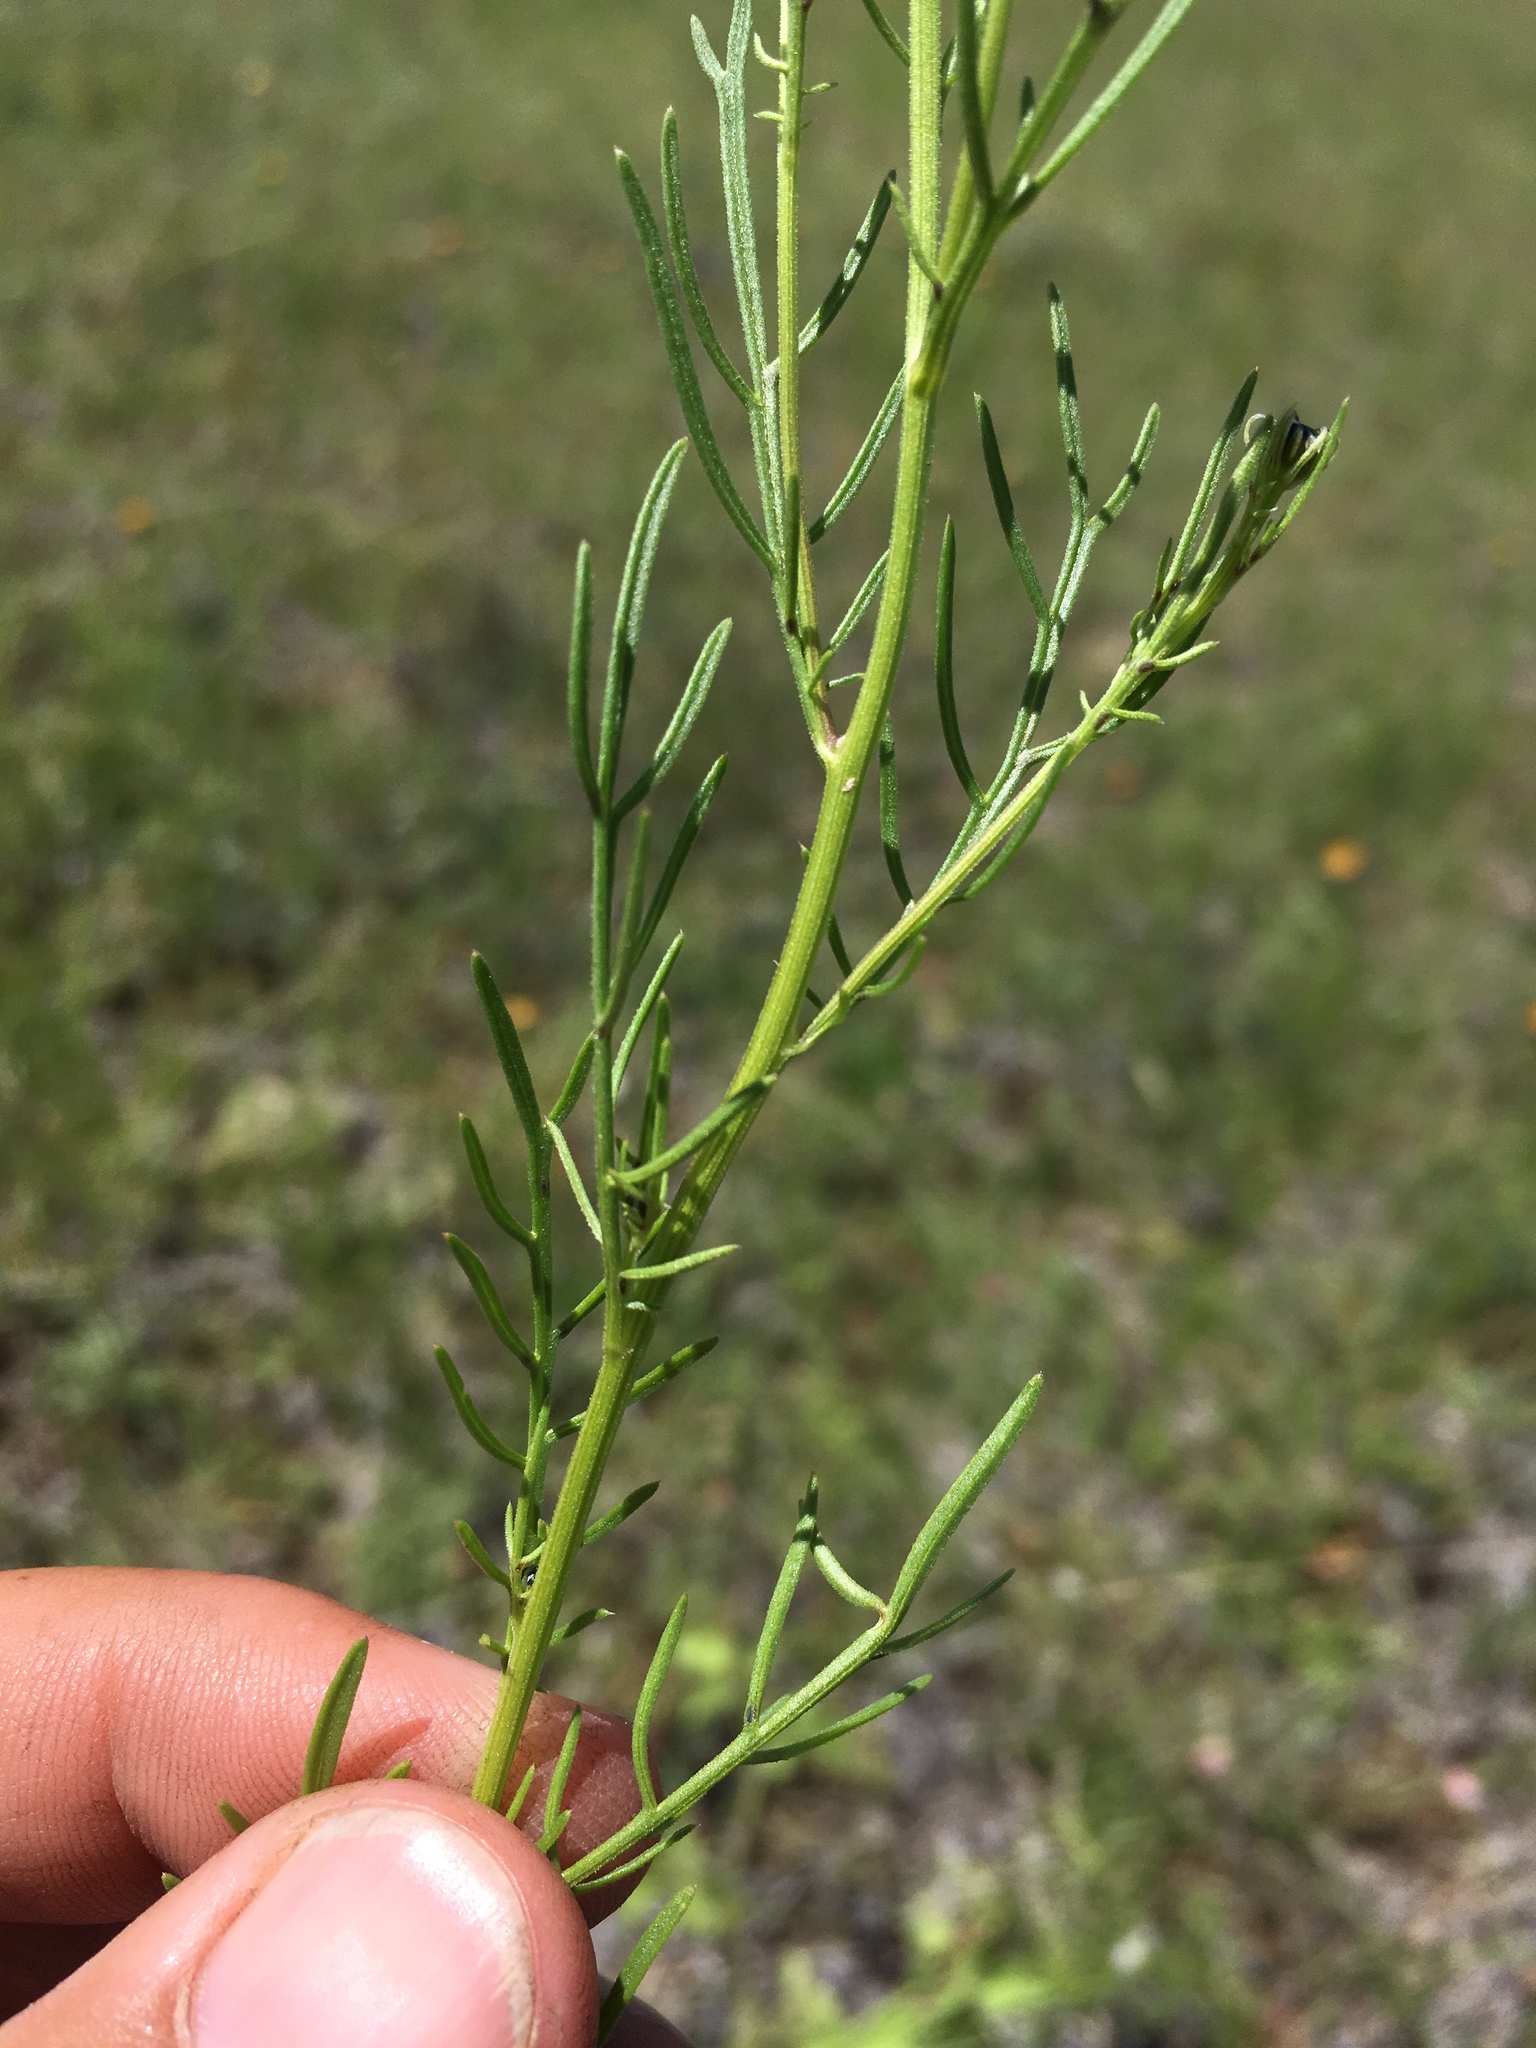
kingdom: Plantae
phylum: Tracheophyta
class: Magnoliopsida
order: Asterales
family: Asteraceae
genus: Adenophyllum
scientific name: Adenophyllum wrightii
